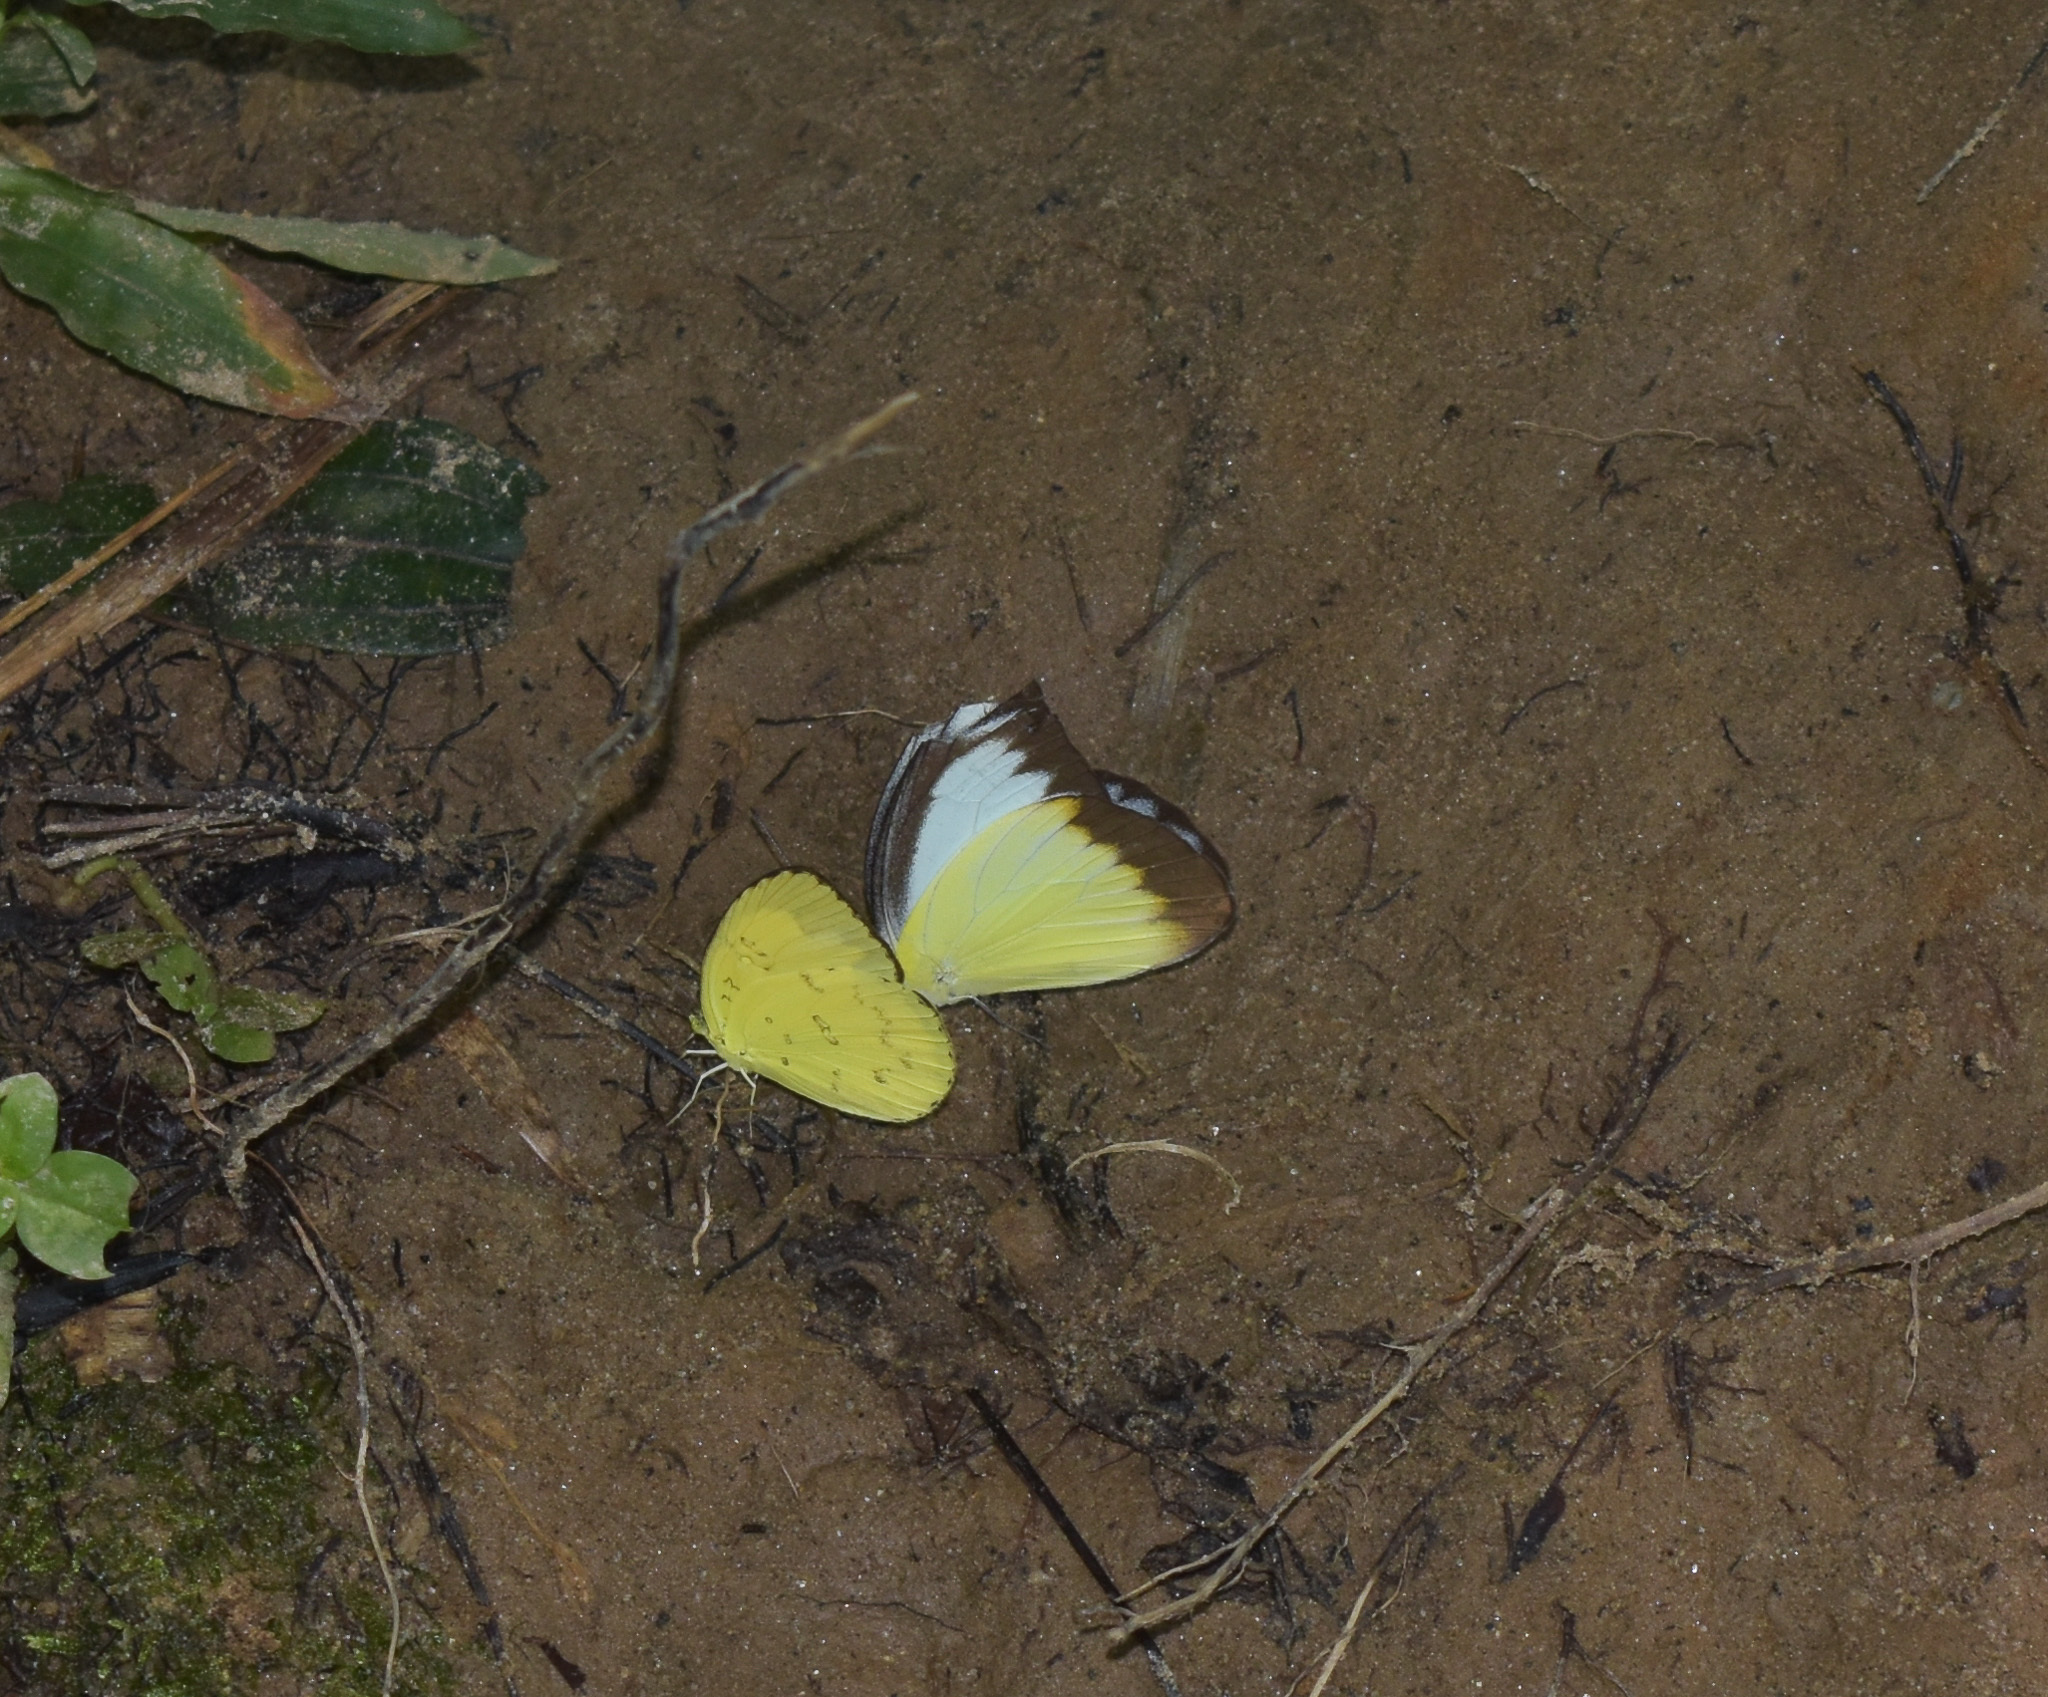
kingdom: Animalia
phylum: Arthropoda
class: Insecta
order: Lepidoptera
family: Pieridae
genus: Appias
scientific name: Appias lyncida
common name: Chocolate albatross
